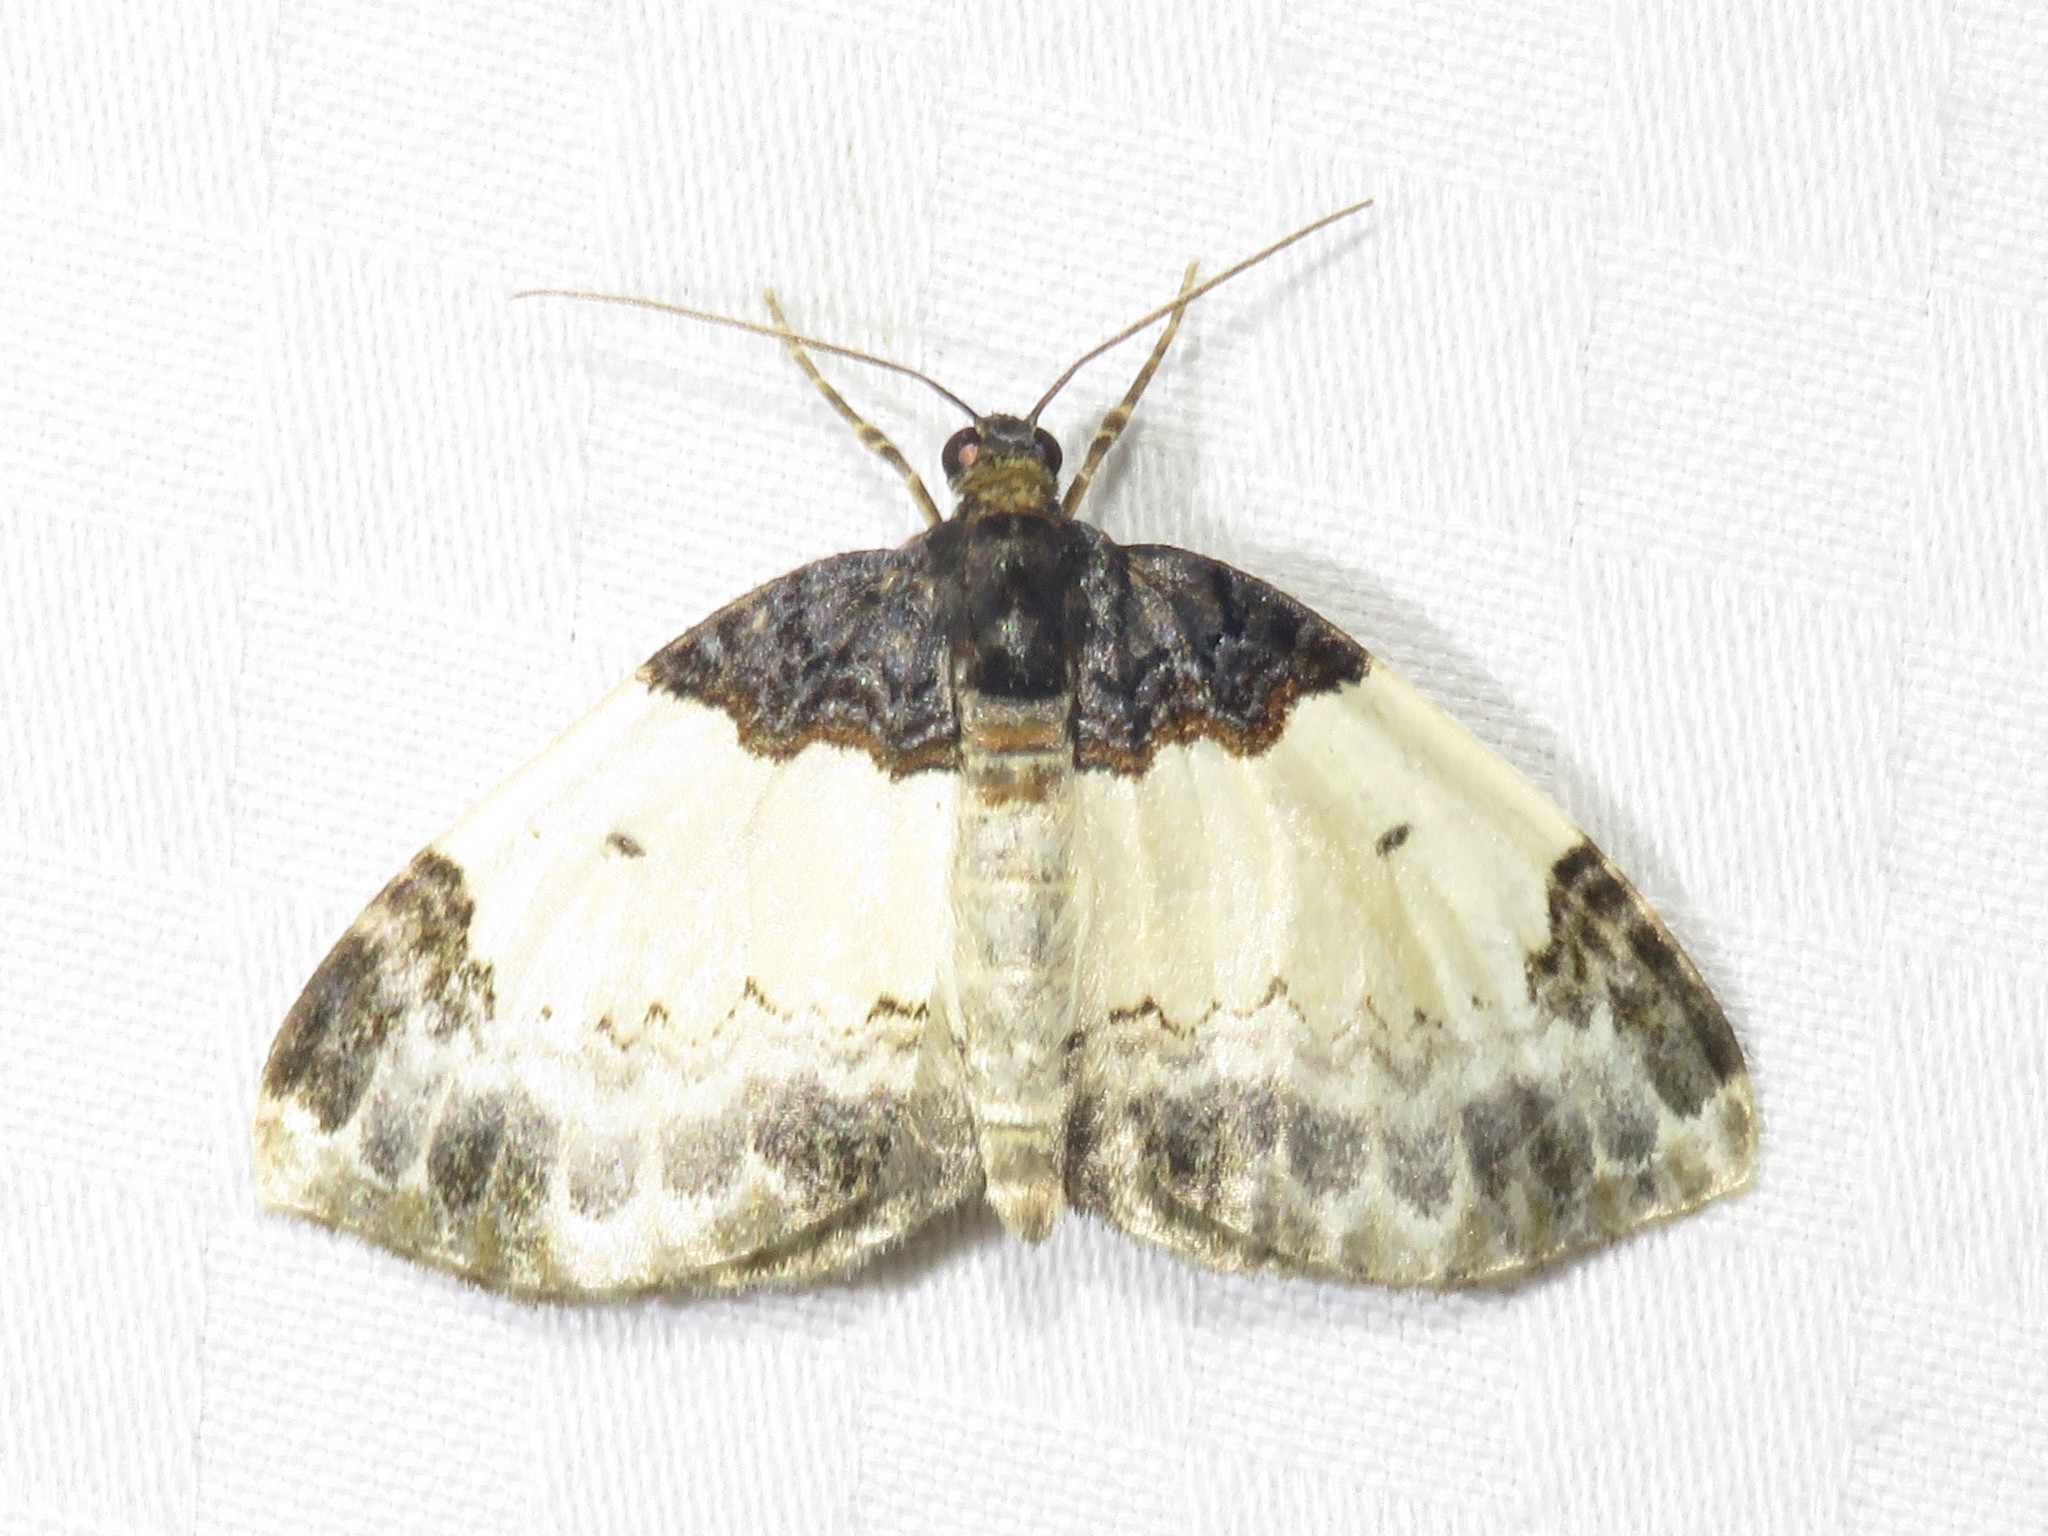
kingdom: Animalia
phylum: Arthropoda
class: Insecta
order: Lepidoptera
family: Geometridae
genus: Mesoleuca
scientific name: Mesoleuca ruficillata
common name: White-ribboned carpet moth
